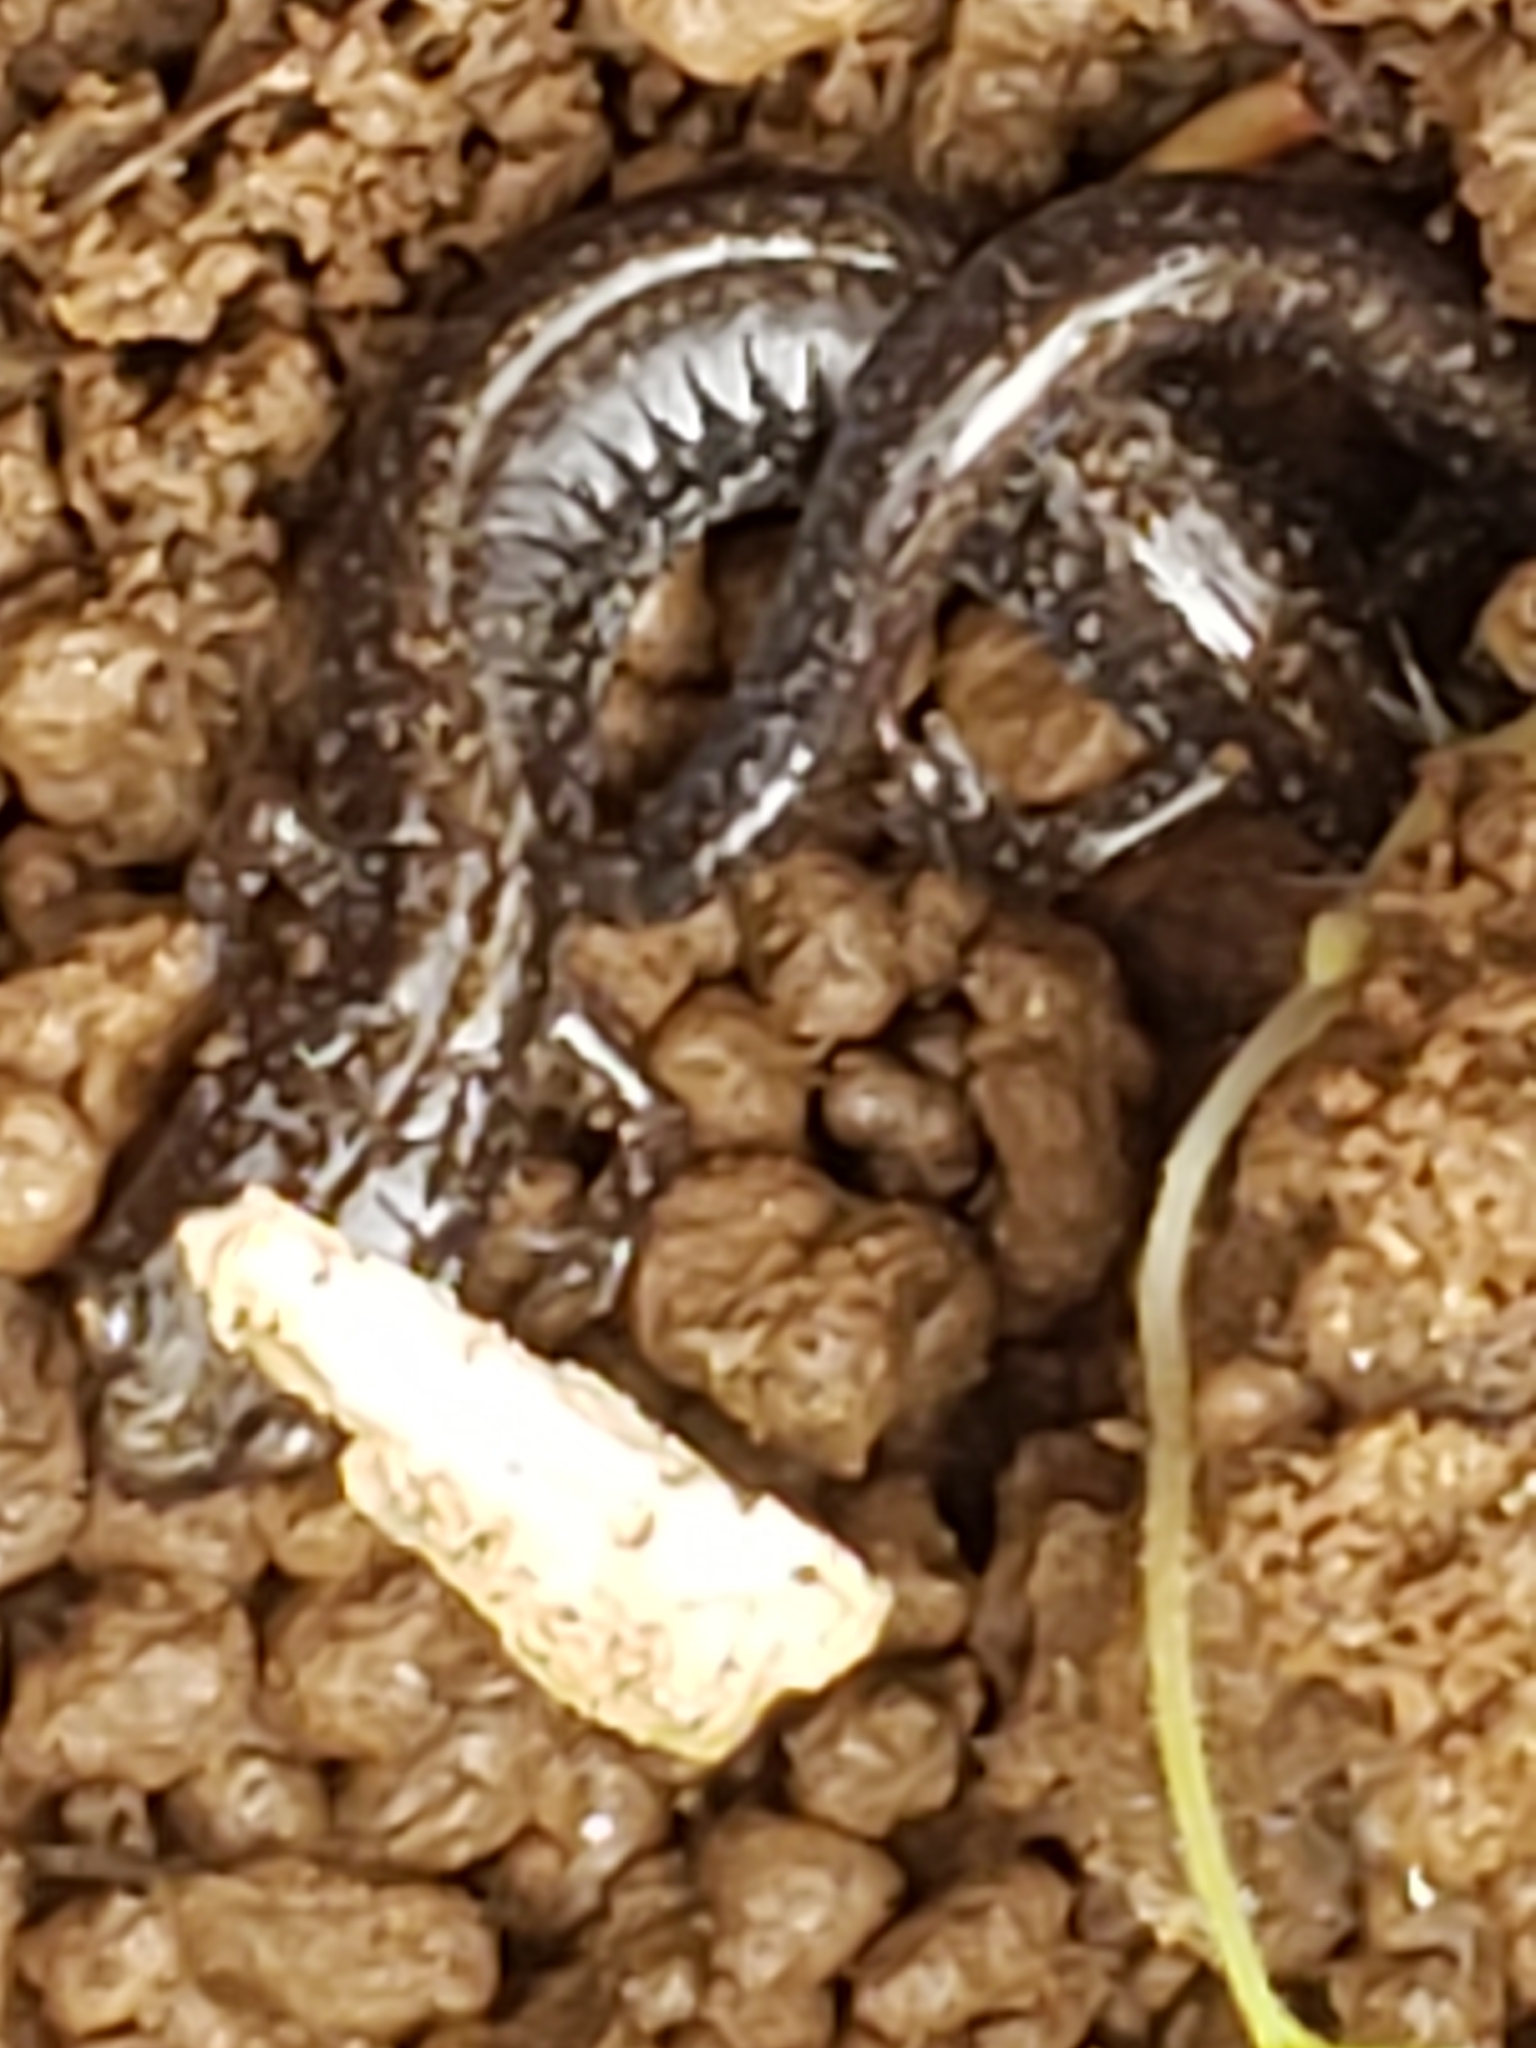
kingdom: Animalia
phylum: Chordata
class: Amphibia
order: Caudata
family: Plethodontidae
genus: Plethodon
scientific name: Plethodon cinereus
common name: Redback salamander
